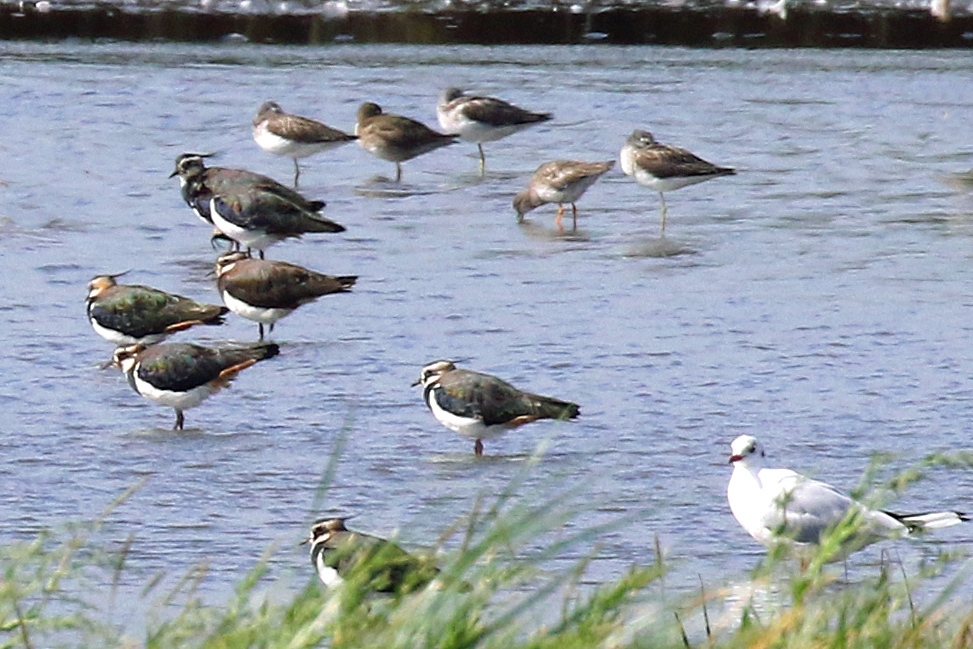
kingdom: Animalia
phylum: Chordata
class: Aves
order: Charadriiformes
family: Scolopacidae
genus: Tringa
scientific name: Tringa nebularia
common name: Common greenshank
